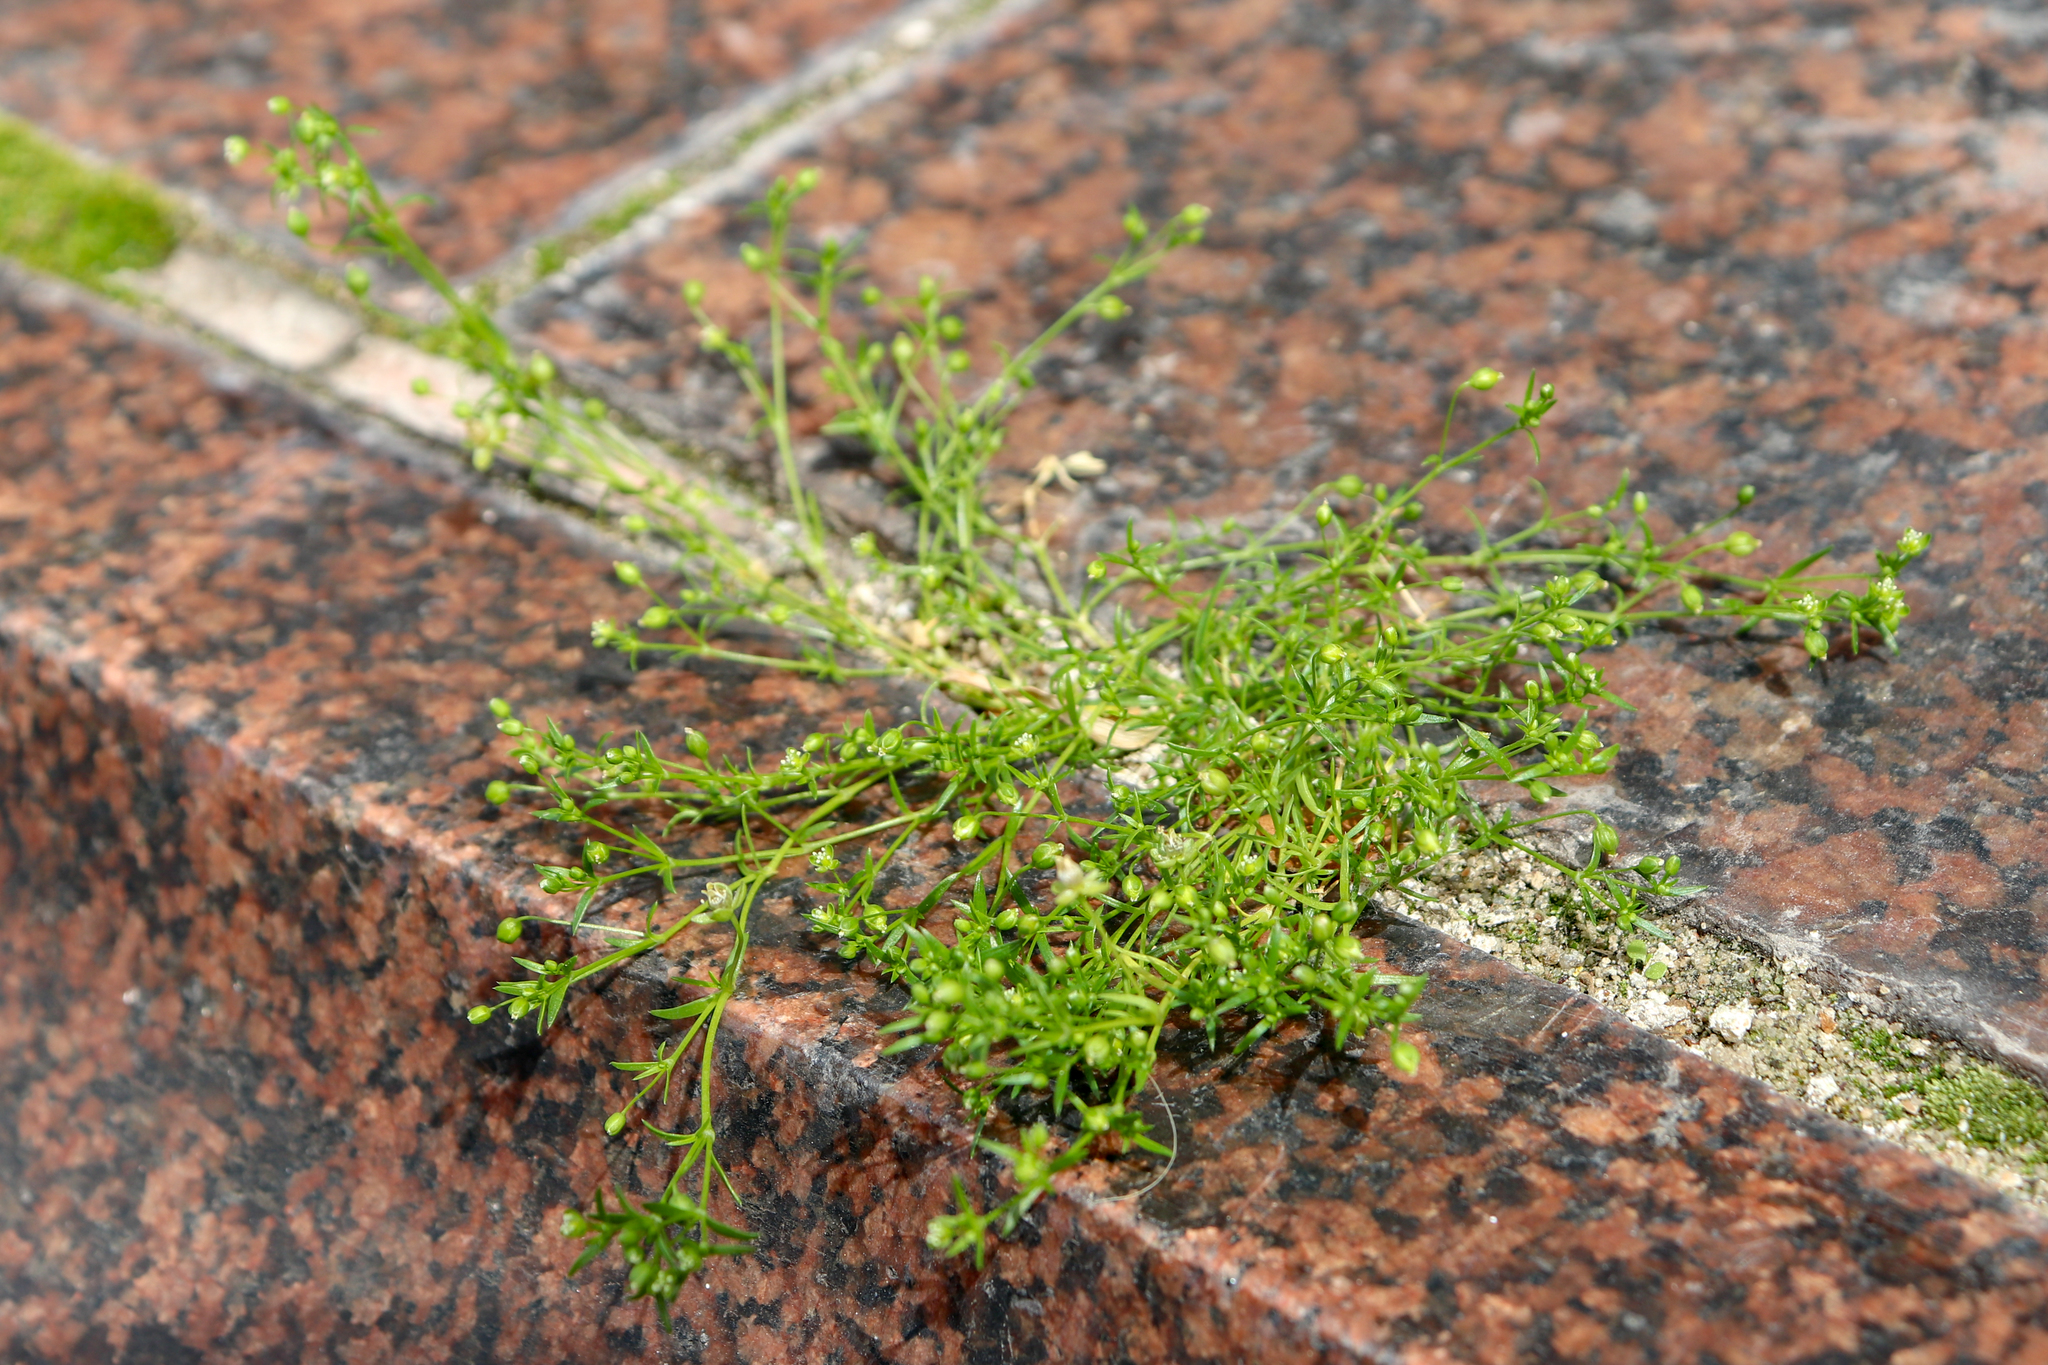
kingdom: Plantae
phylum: Tracheophyta
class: Magnoliopsida
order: Caryophyllales
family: Caryophyllaceae
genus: Sagina
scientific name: Sagina procumbens
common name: Procumbent pearlwort
